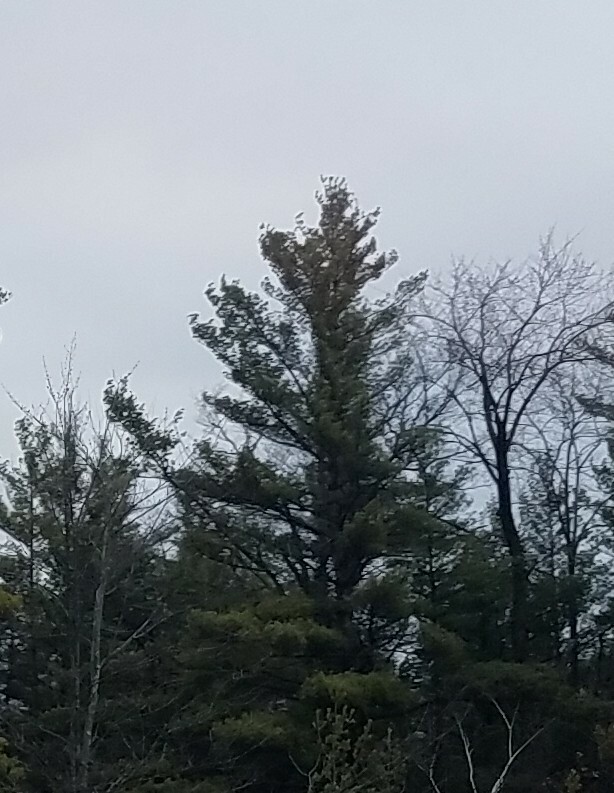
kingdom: Plantae
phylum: Tracheophyta
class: Pinopsida
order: Pinales
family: Pinaceae
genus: Pinus
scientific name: Pinus strobus
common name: Weymouth pine
